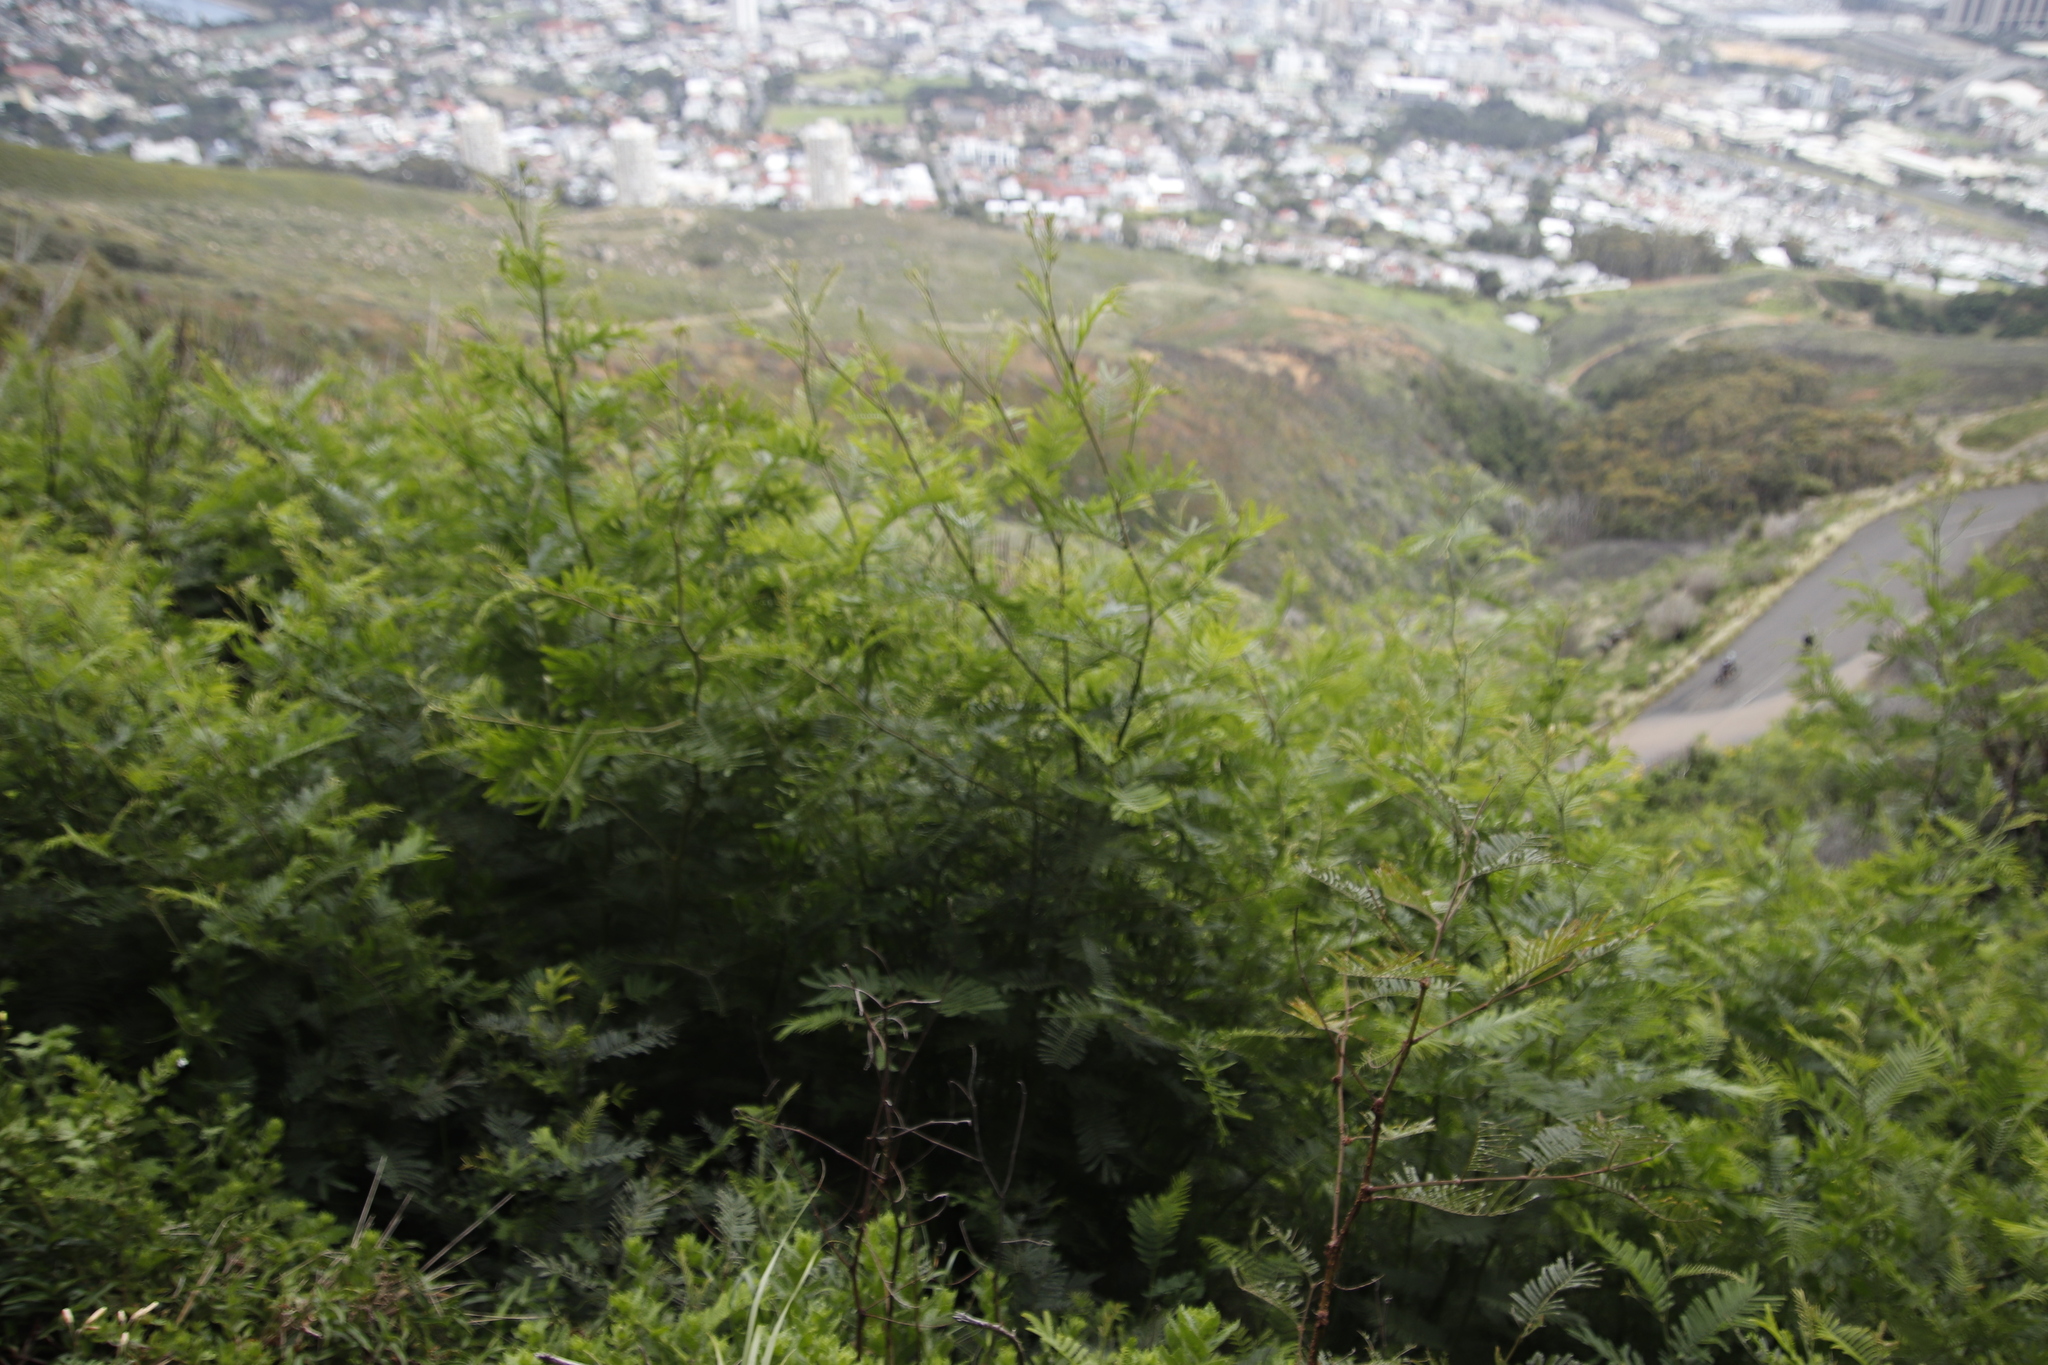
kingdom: Plantae
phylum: Tracheophyta
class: Magnoliopsida
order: Fabales
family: Fabaceae
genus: Paraserianthes
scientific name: Paraserianthes lophantha
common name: Plume albizia
